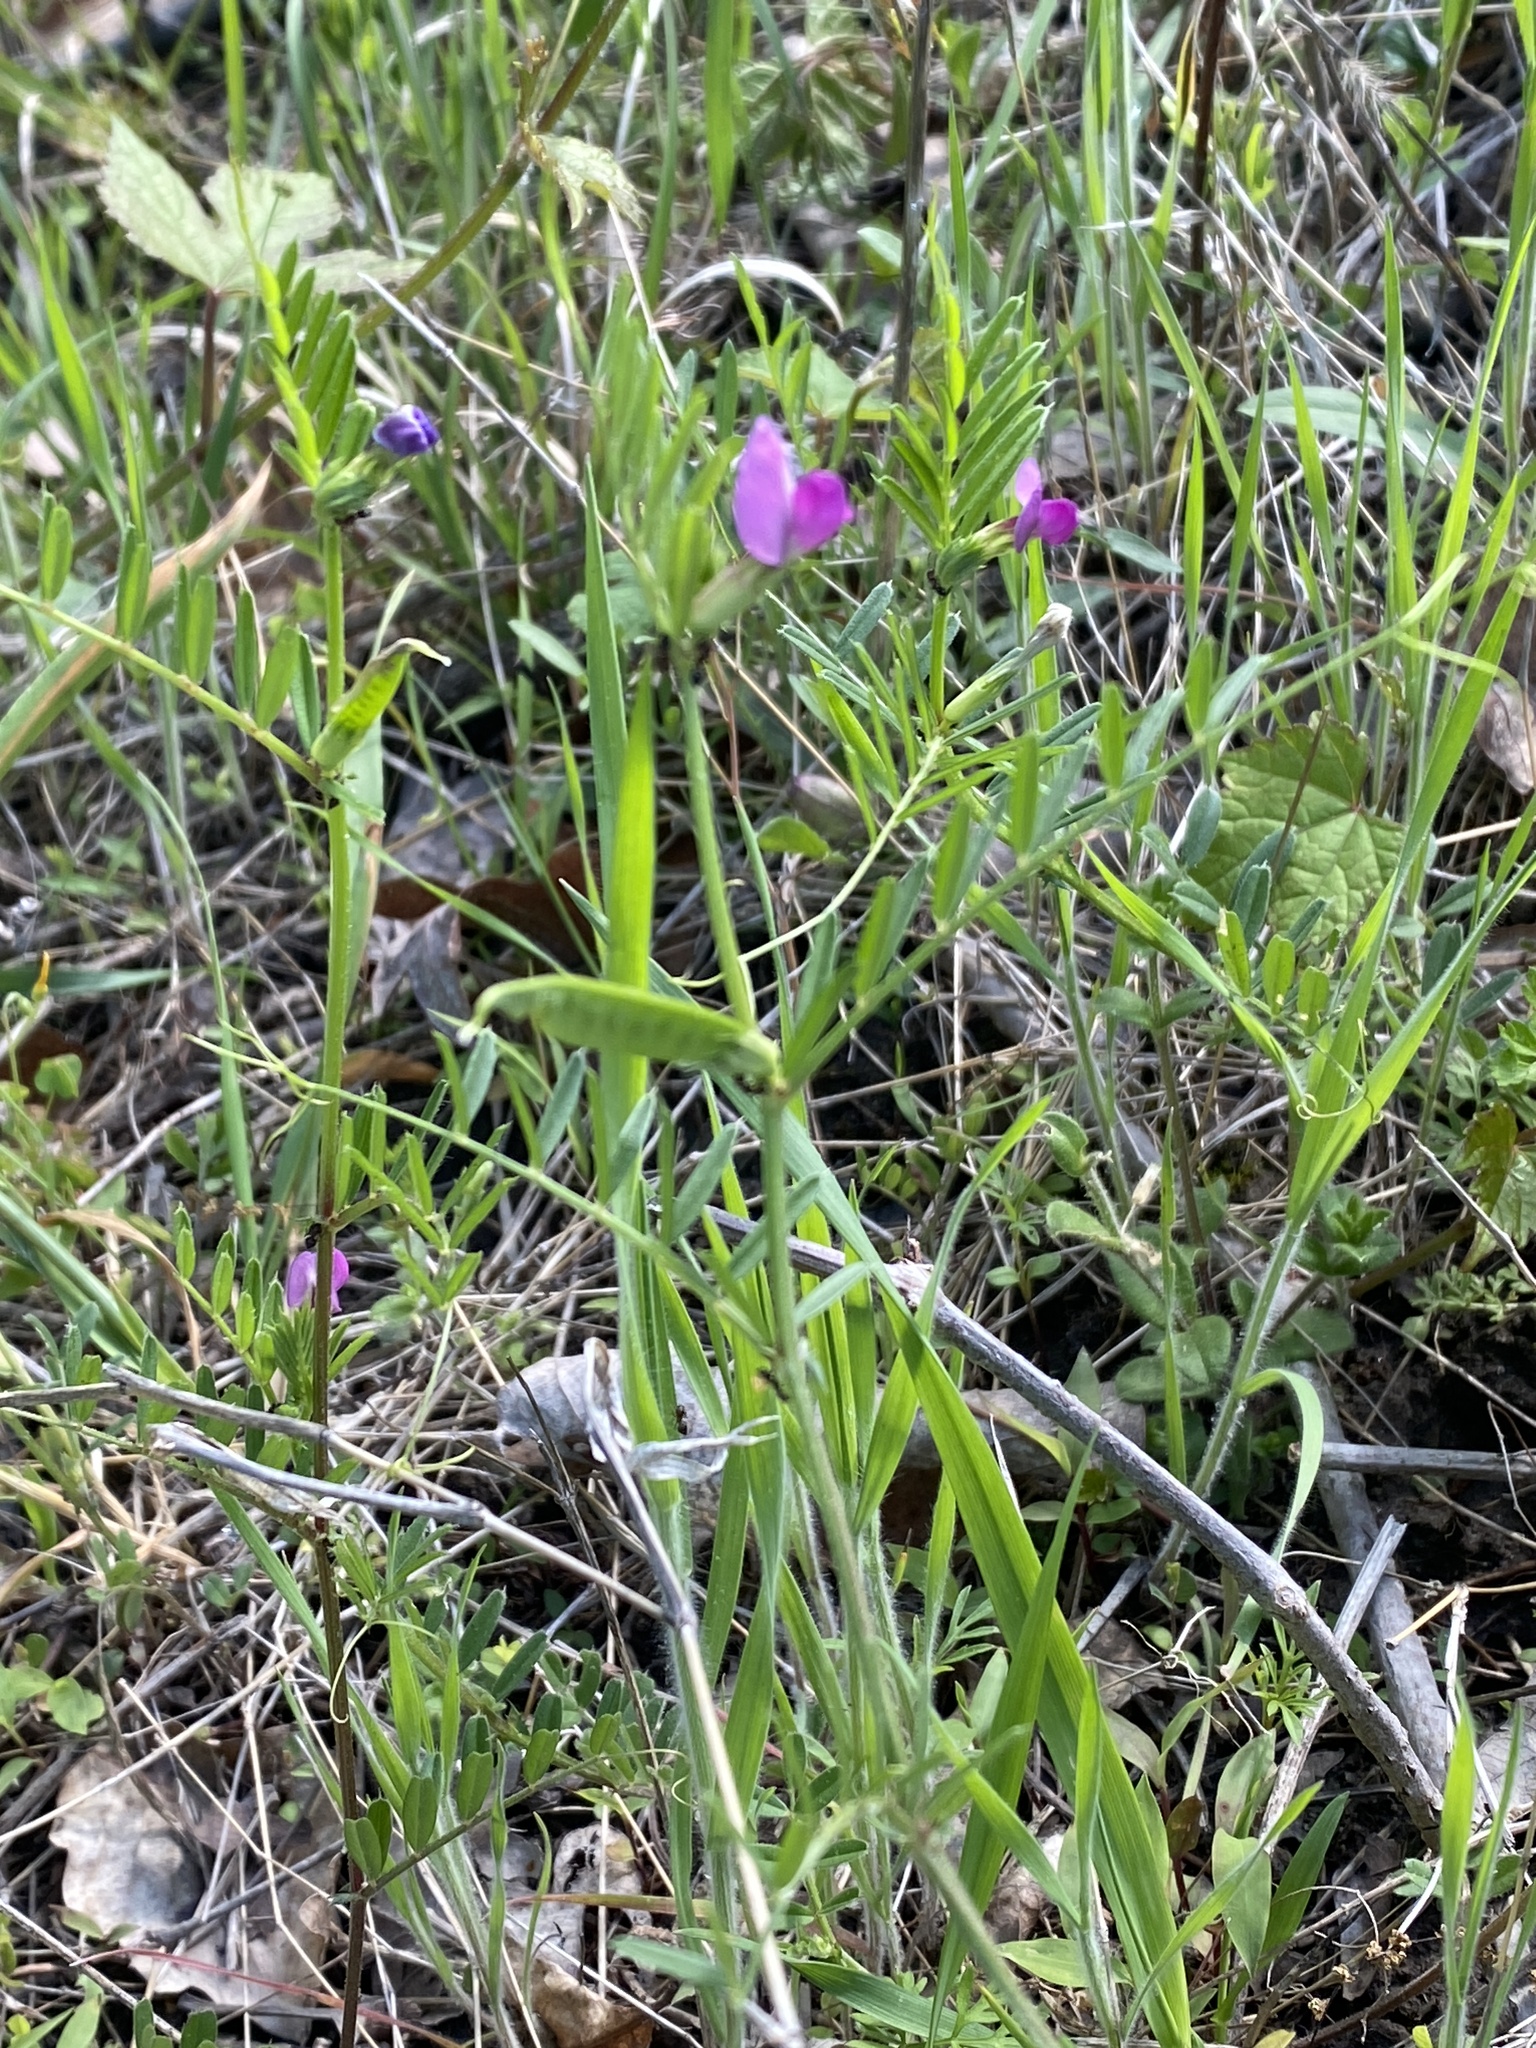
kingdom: Plantae
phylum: Tracheophyta
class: Magnoliopsida
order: Fabales
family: Fabaceae
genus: Vicia
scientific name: Vicia sativa
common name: Garden vetch
